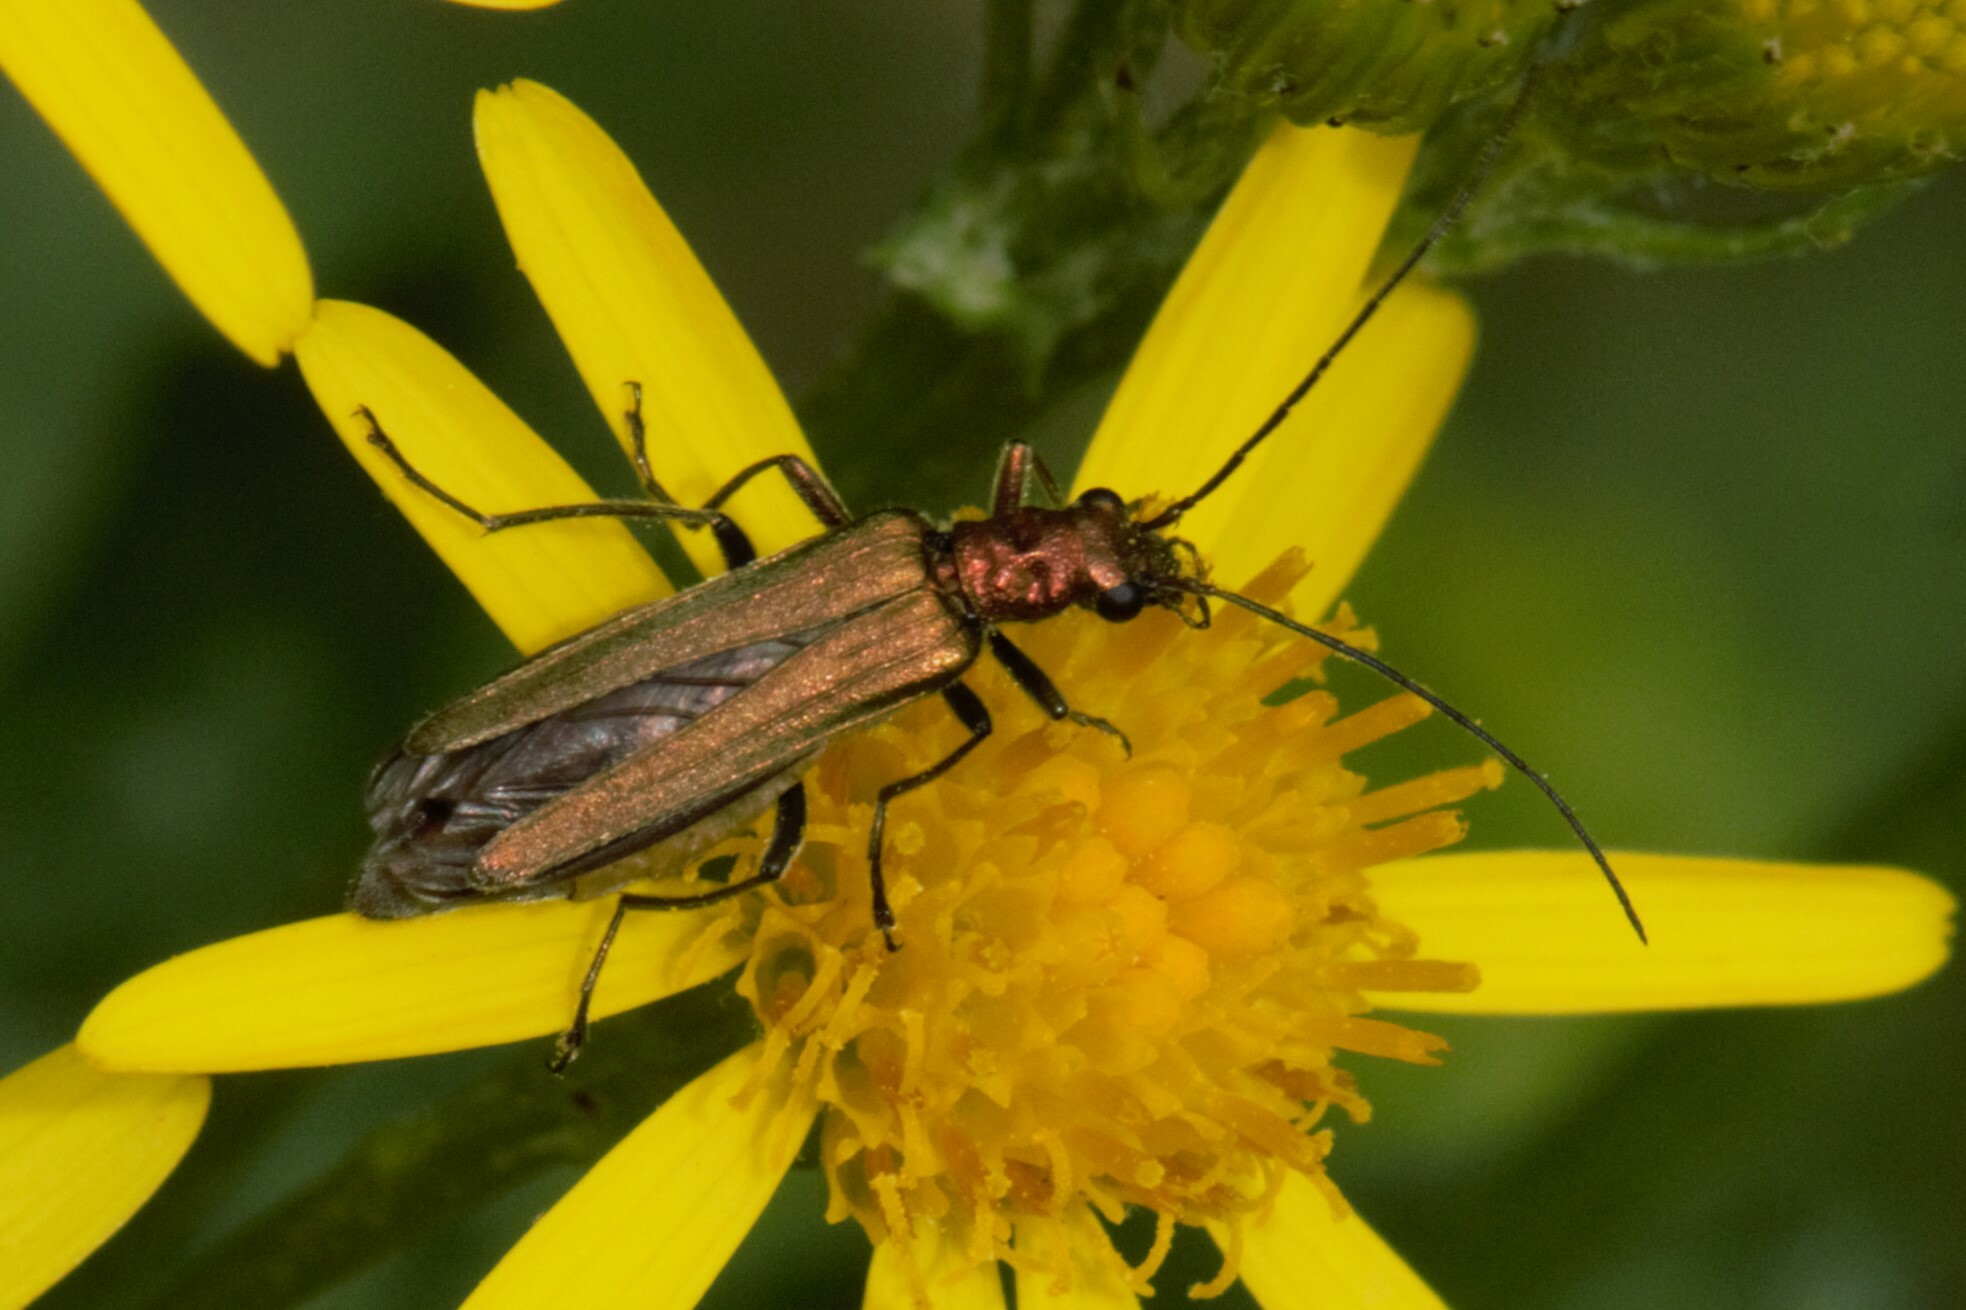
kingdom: Animalia
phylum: Arthropoda
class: Insecta
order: Coleoptera
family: Oedemeridae
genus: Oedemera
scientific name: Oedemera nobilis
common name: Swollen-thighed beetle
